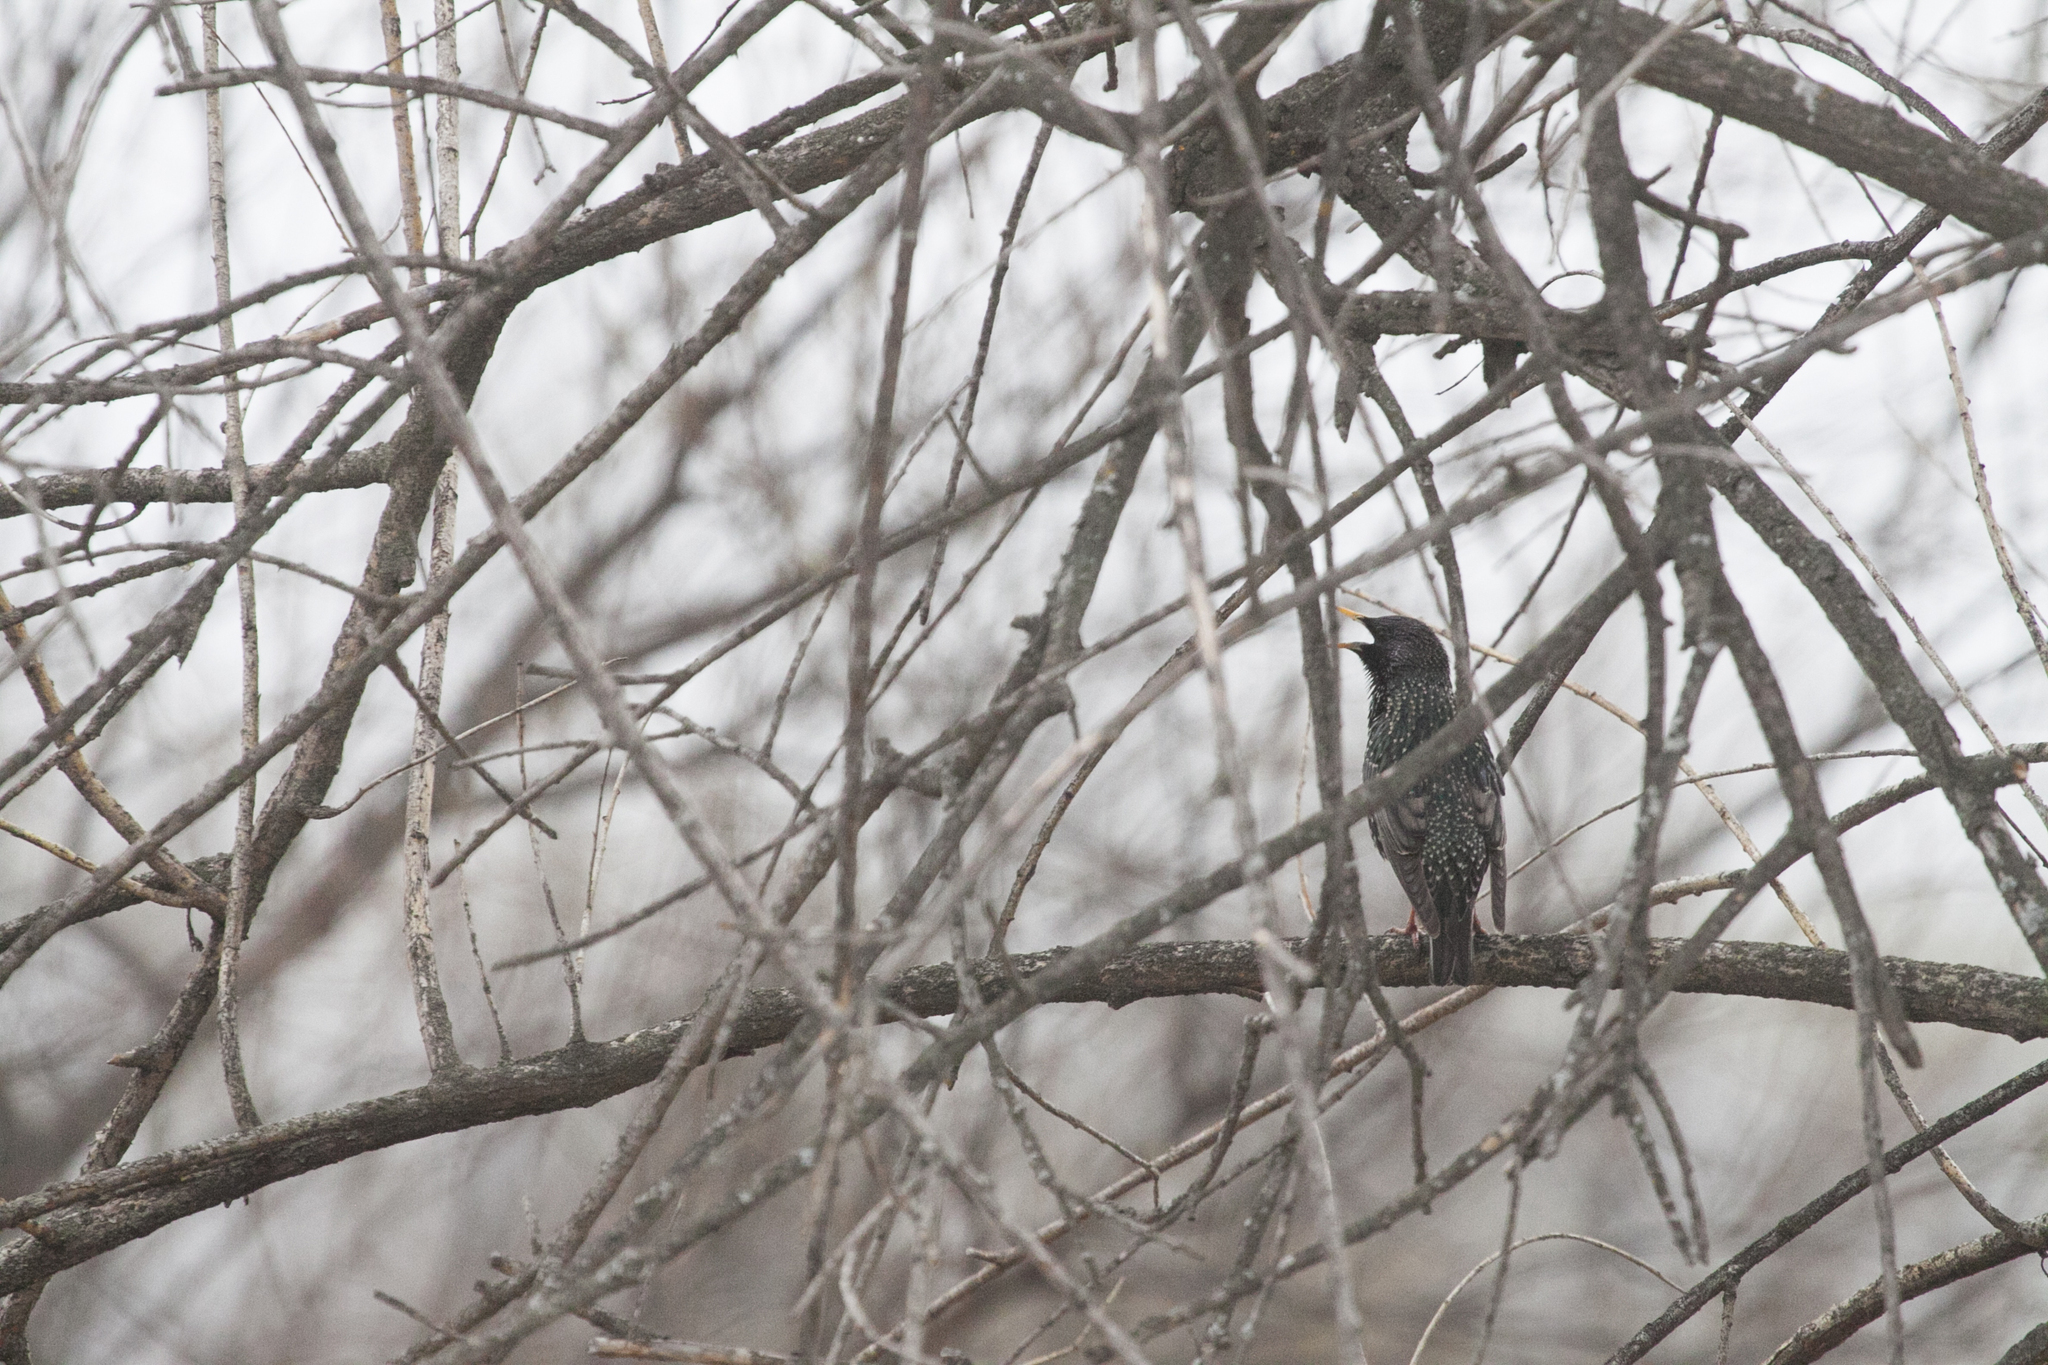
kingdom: Animalia
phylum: Chordata
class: Aves
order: Passeriformes
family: Sturnidae
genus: Sturnus
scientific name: Sturnus vulgaris
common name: Common starling
